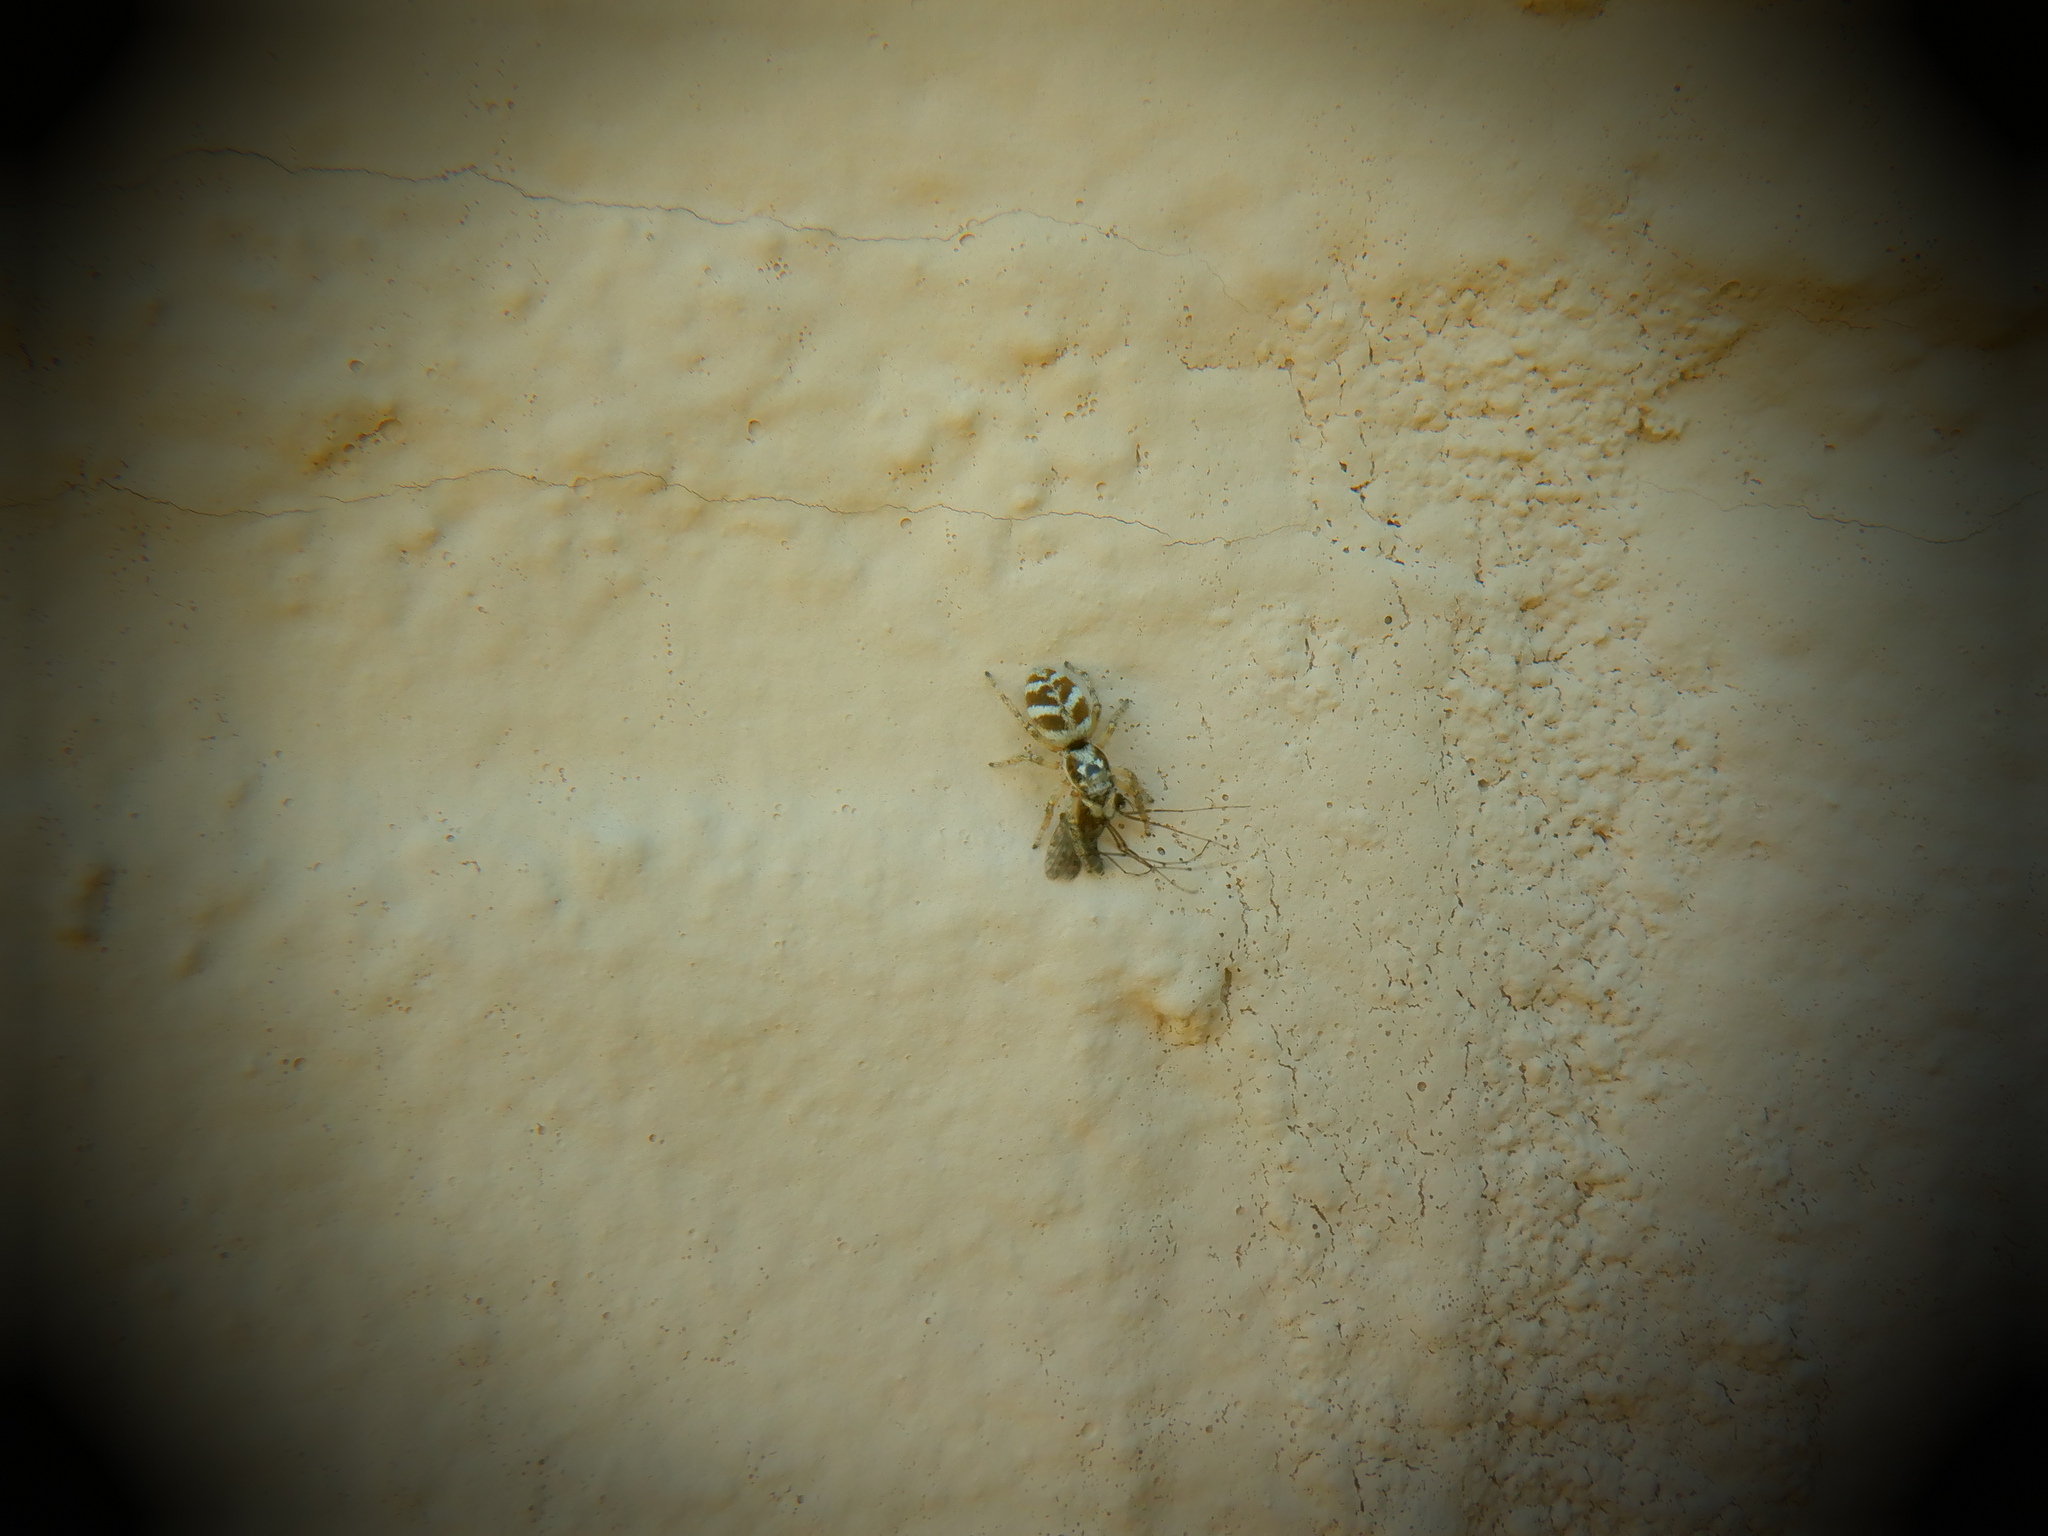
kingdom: Animalia
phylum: Arthropoda
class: Arachnida
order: Araneae
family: Salticidae
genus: Salticus
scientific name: Salticus scenicus
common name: Zebra jumper
